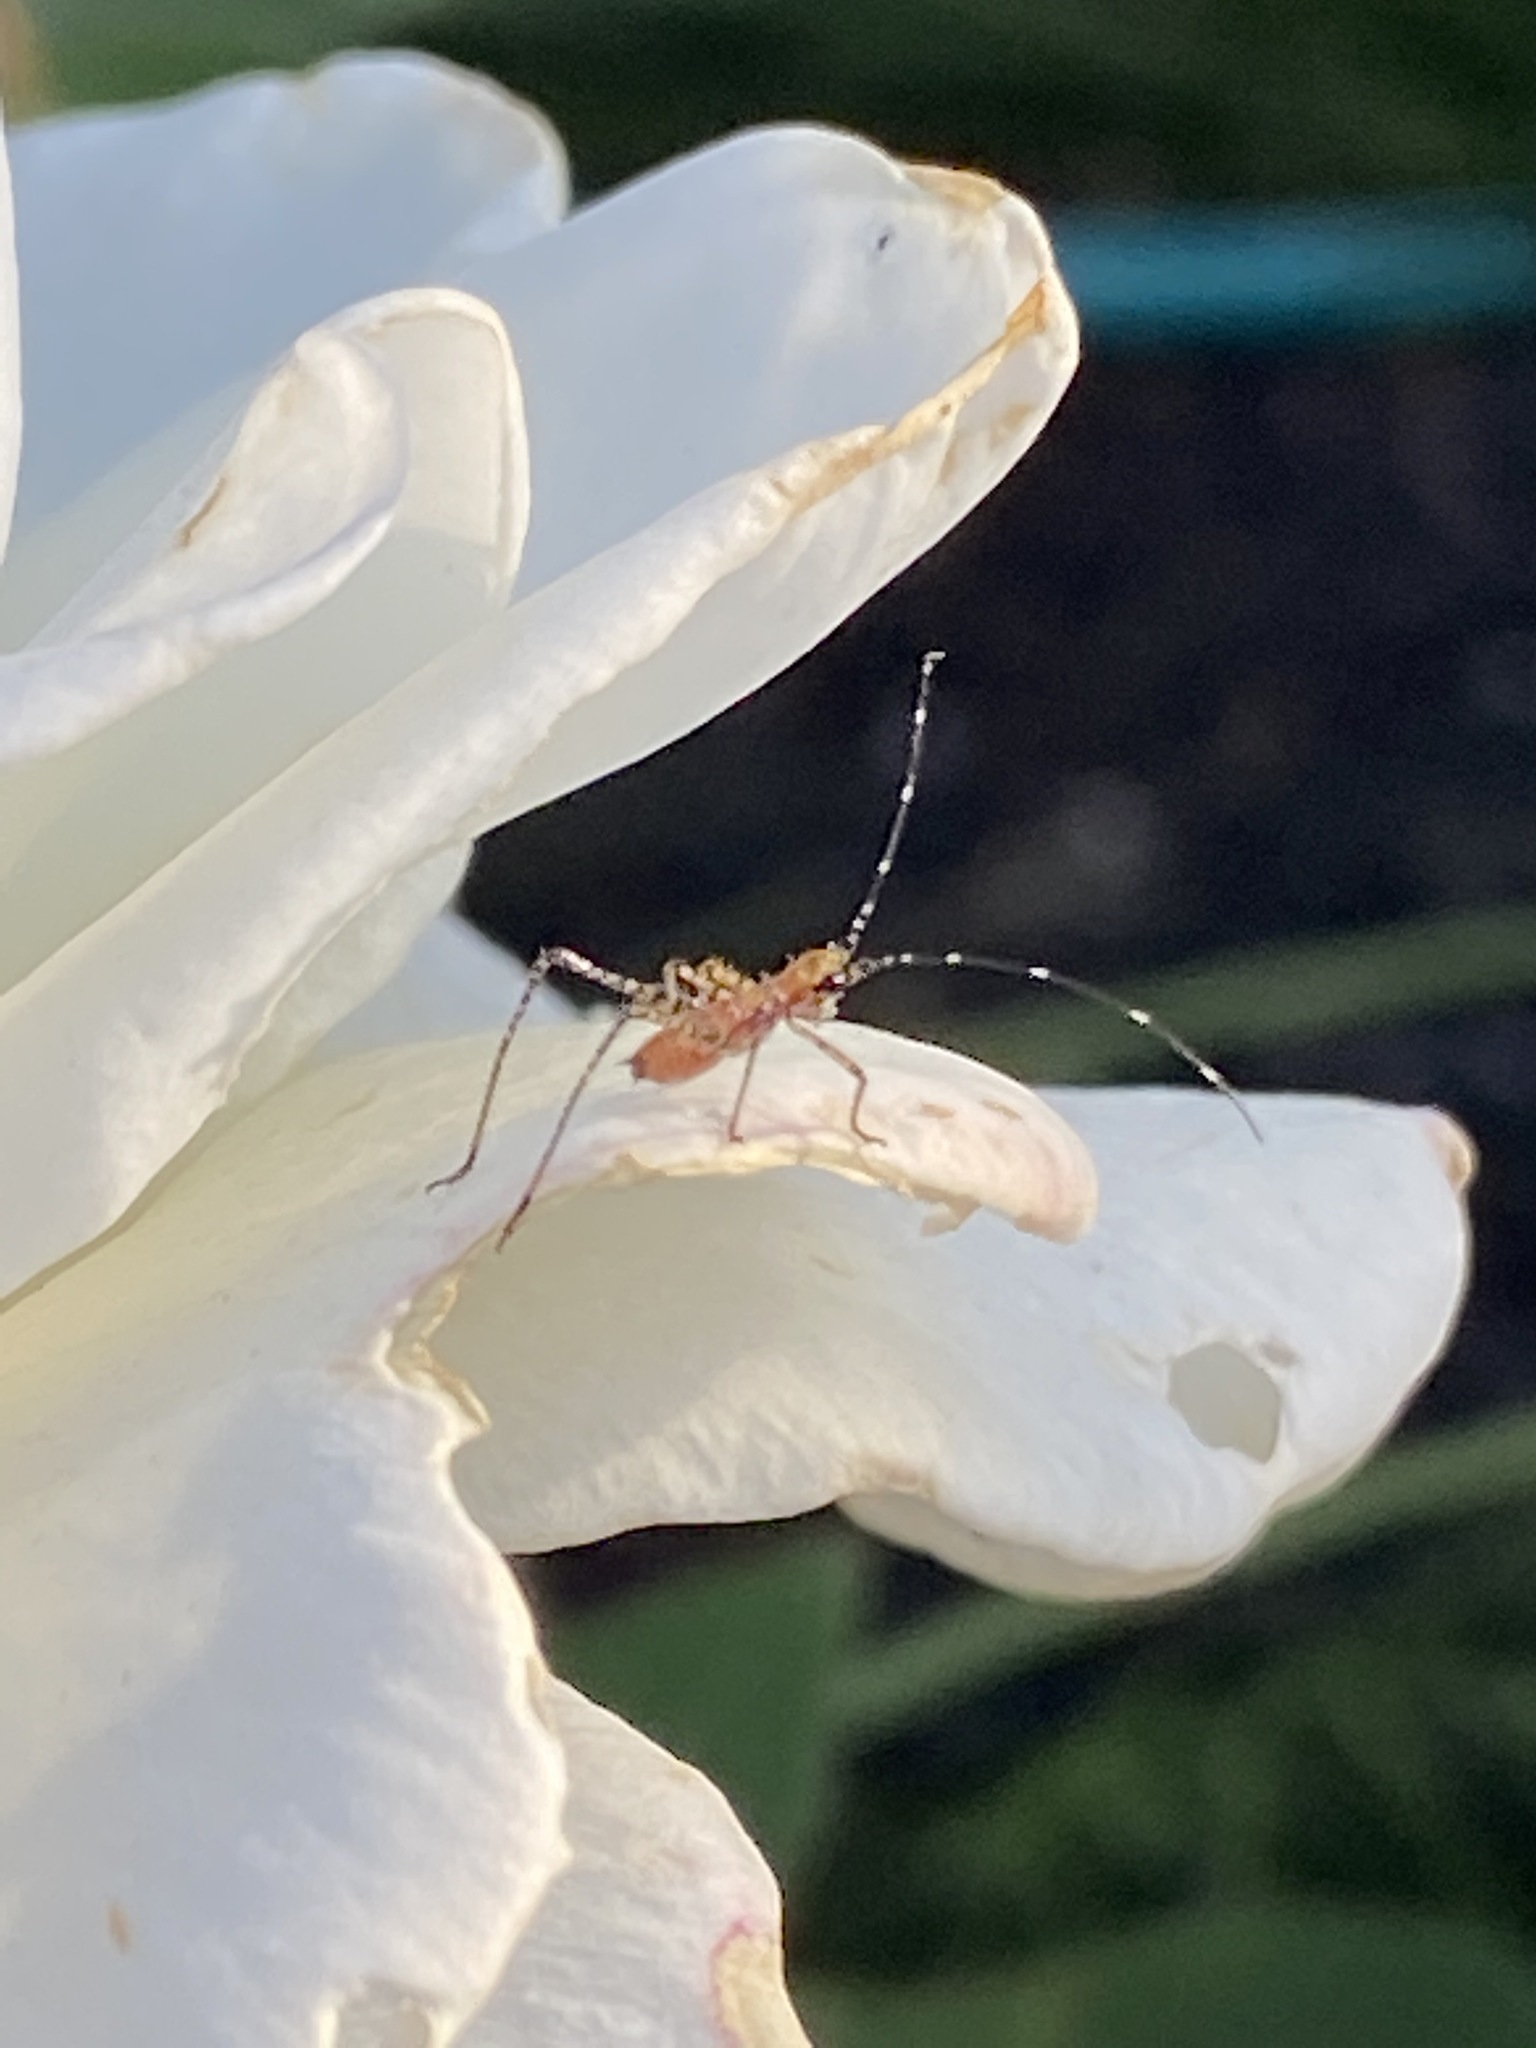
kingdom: Animalia
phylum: Arthropoda
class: Insecta
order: Orthoptera
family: Tettigoniidae
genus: Scudderia
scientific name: Scudderia
